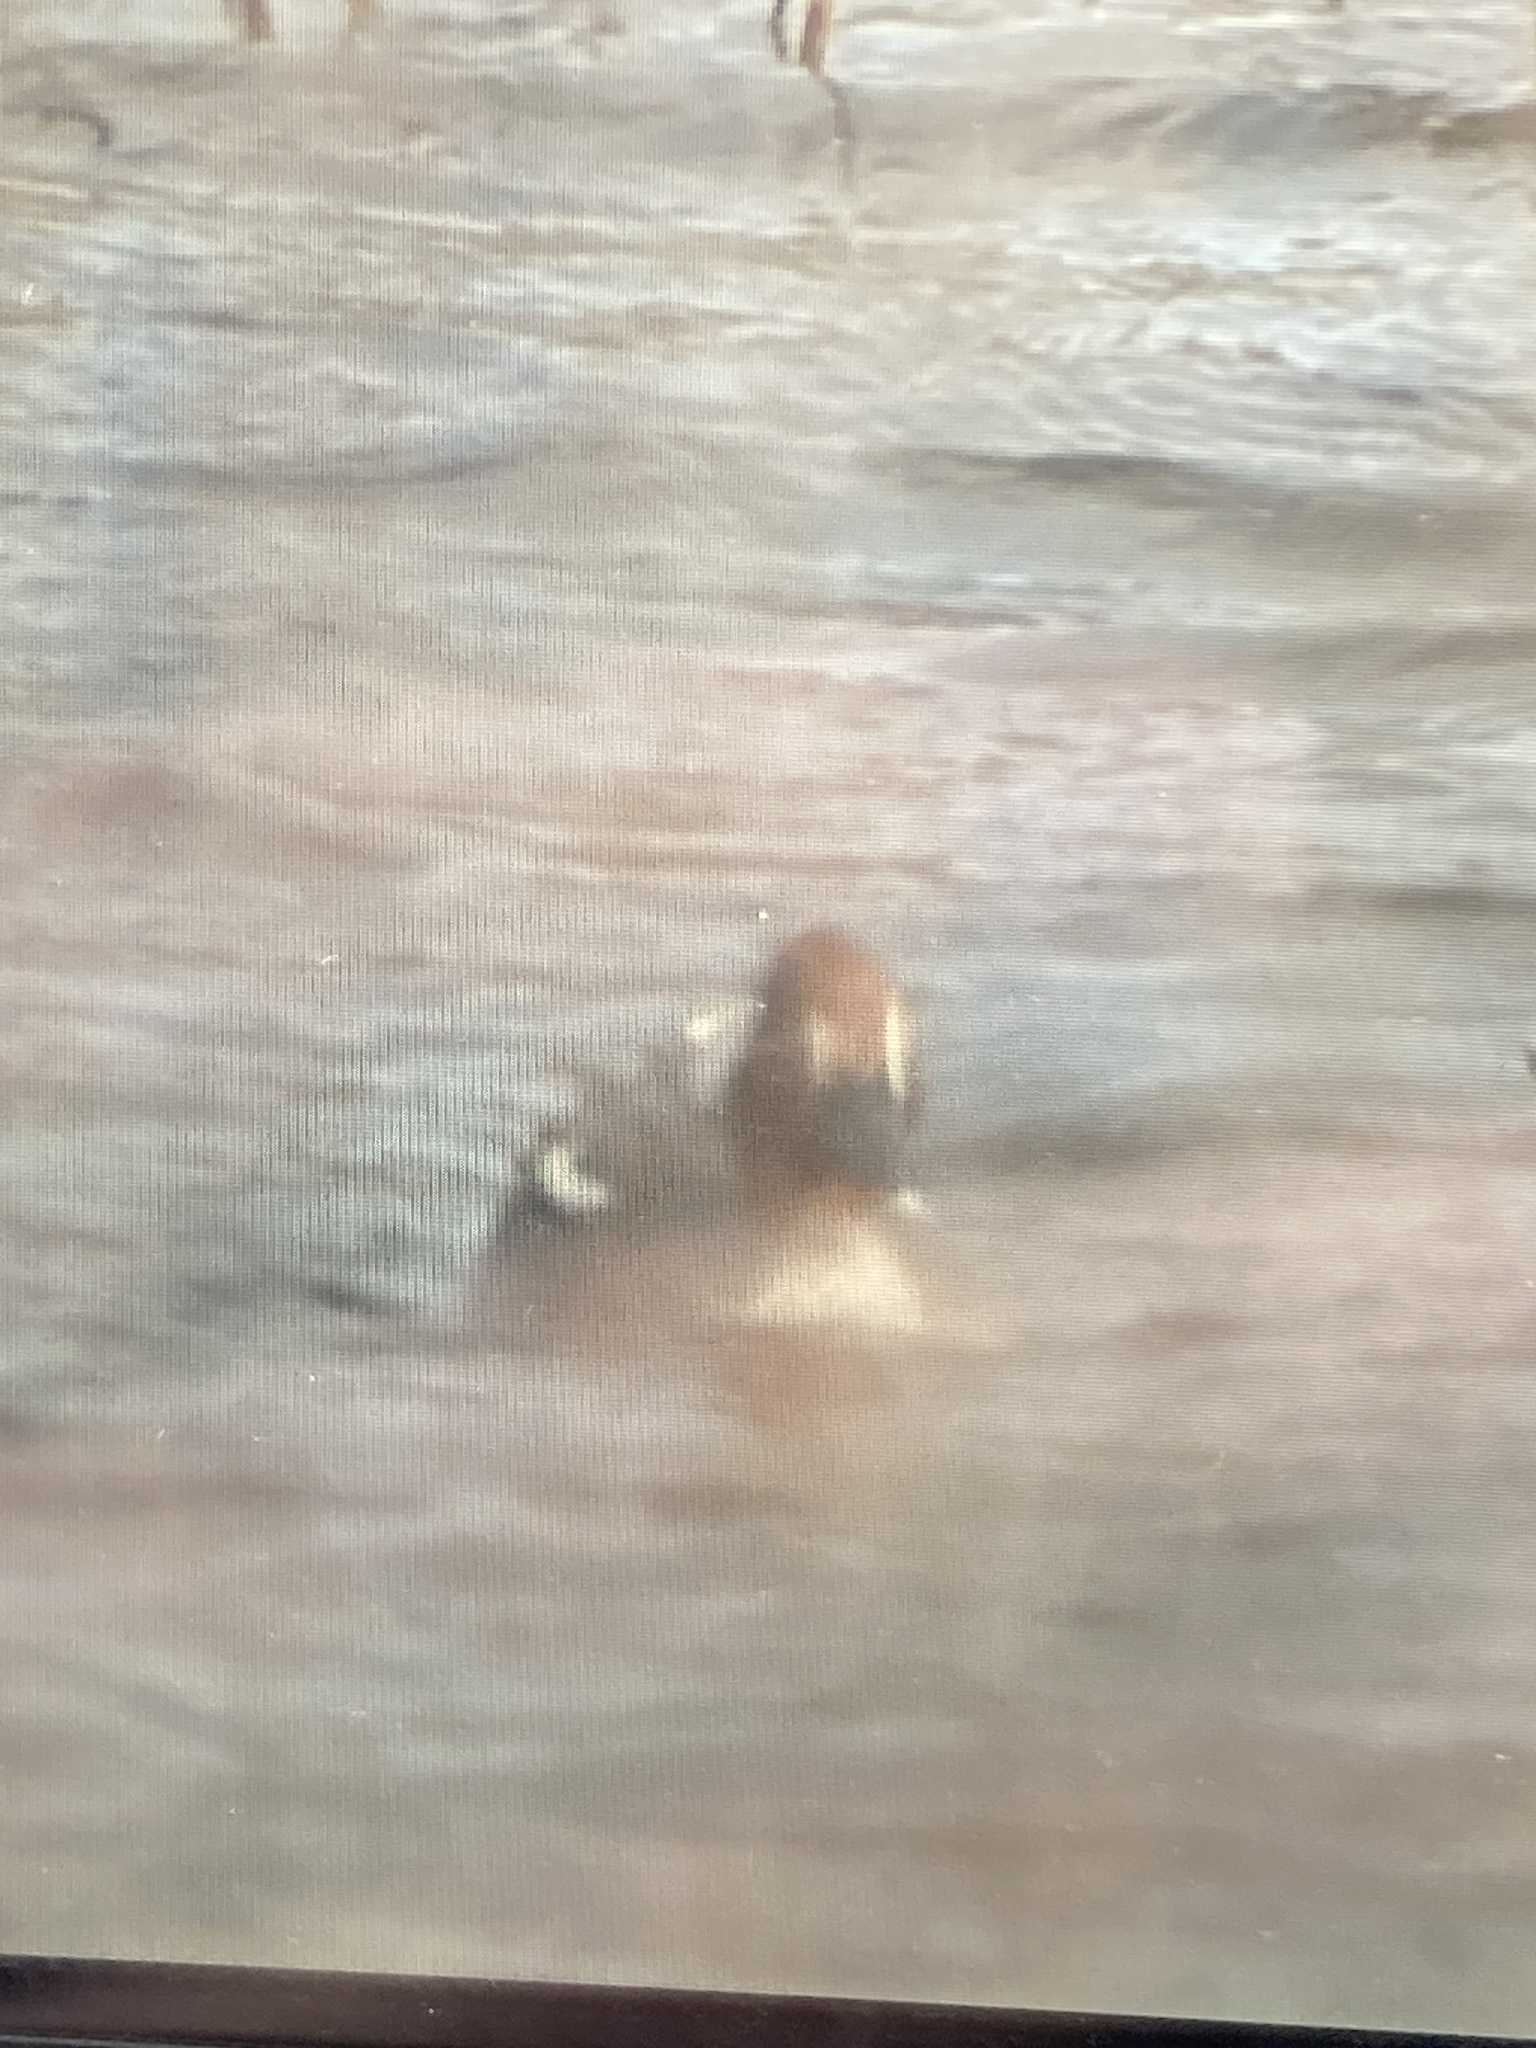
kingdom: Animalia
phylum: Chordata
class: Aves
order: Anseriformes
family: Anatidae
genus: Anas
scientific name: Anas crecca
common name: Eurasian teal
